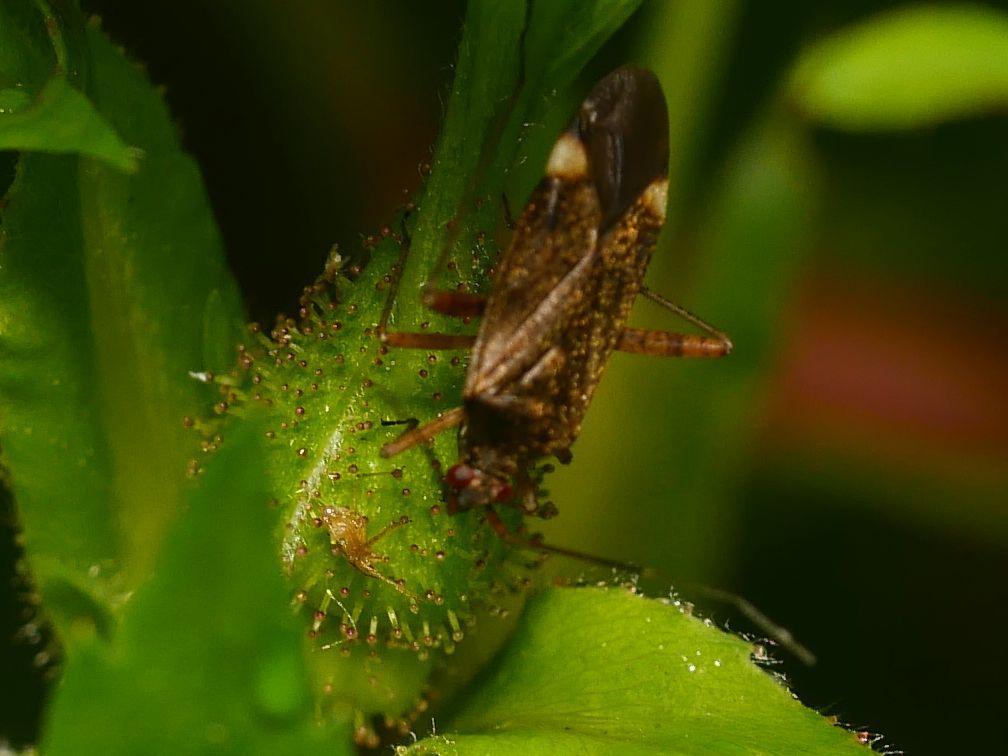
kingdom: Animalia
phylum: Arthropoda
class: Insecta
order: Hemiptera
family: Miridae
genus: Closterotomus
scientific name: Closterotomus fulvomaculatus
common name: Spotted plant bug
